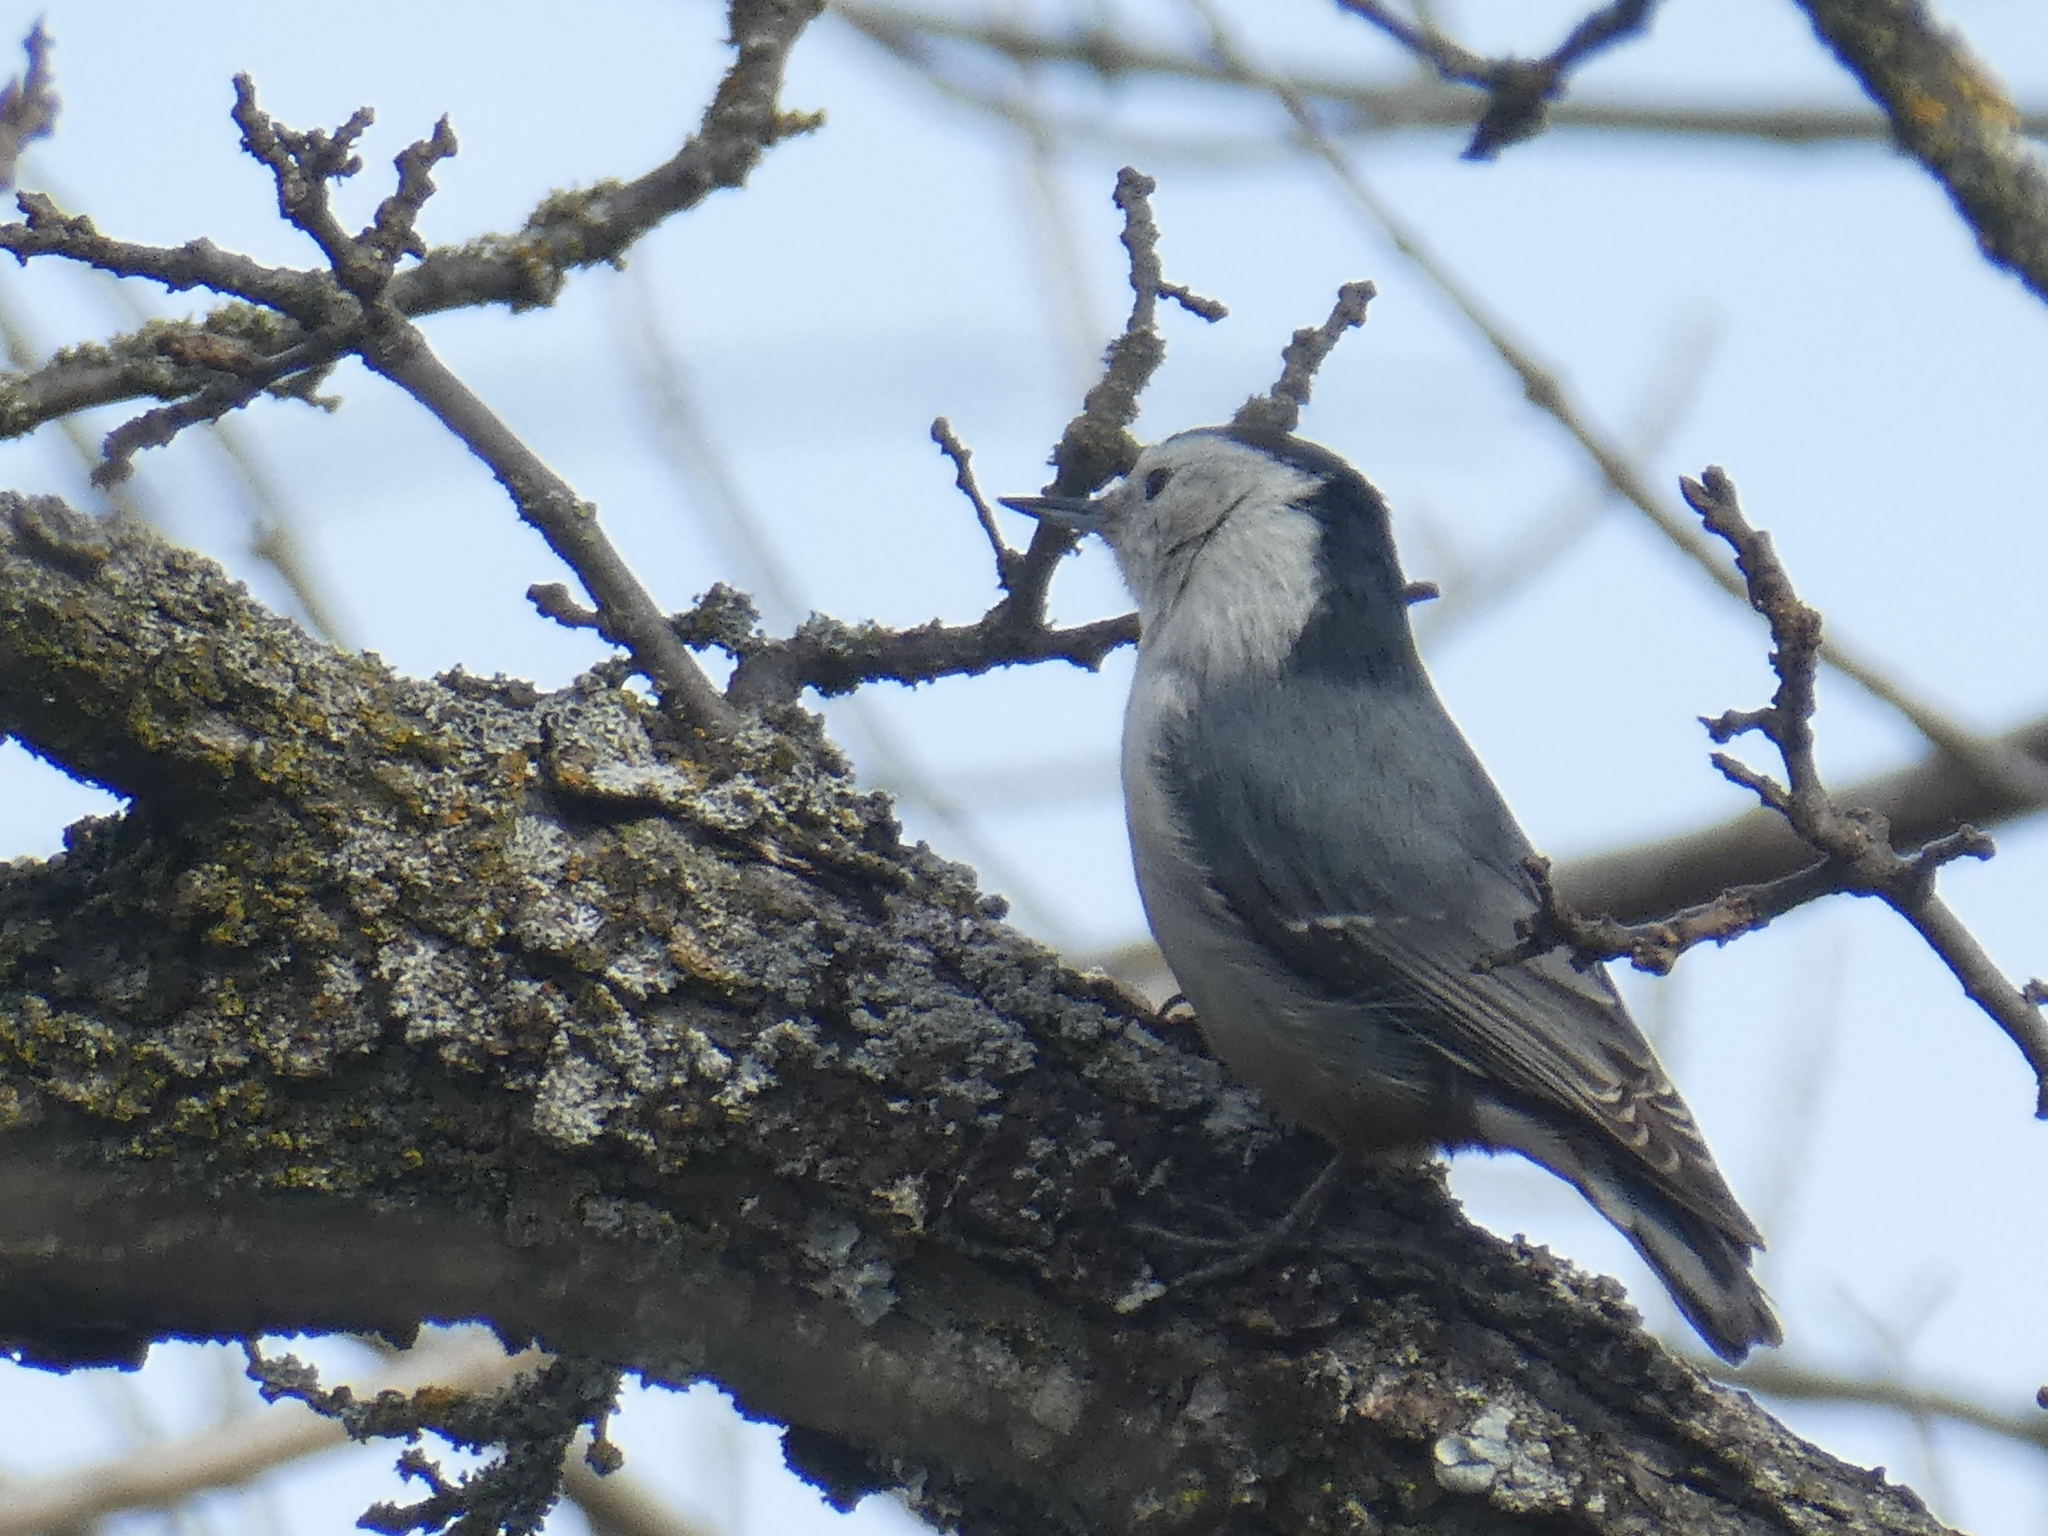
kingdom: Animalia
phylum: Chordata
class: Aves
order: Passeriformes
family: Sittidae
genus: Sitta
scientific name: Sitta carolinensis
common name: White-breasted nuthatch
